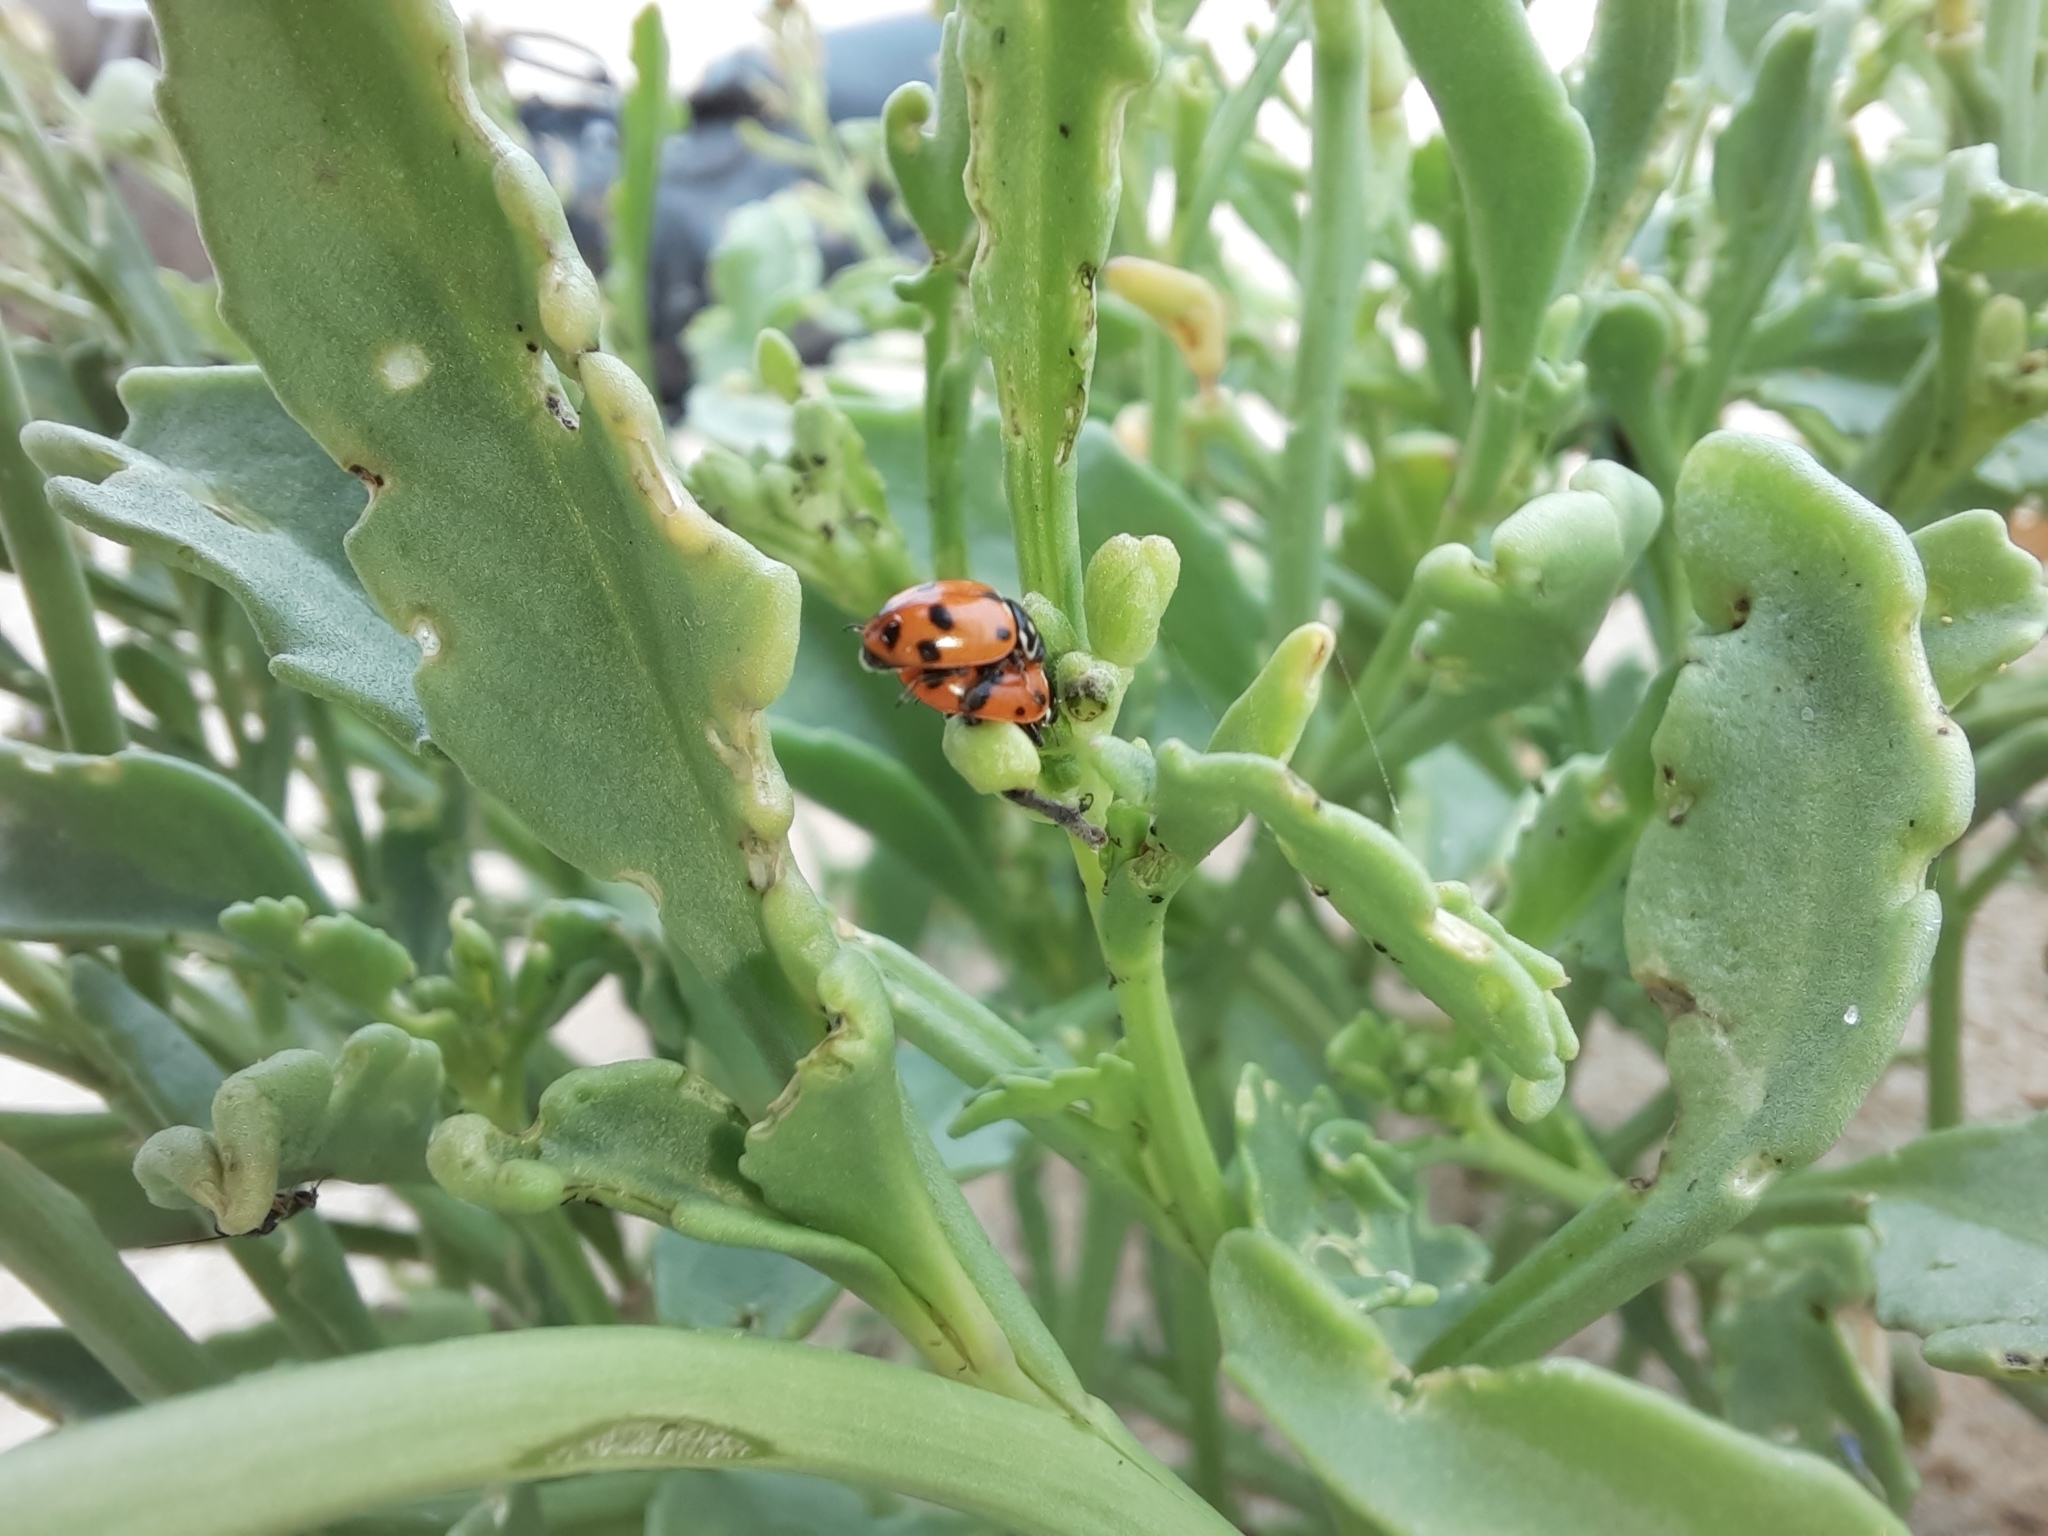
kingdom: Animalia
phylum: Arthropoda
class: Insecta
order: Coleoptera
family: Coccinellidae
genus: Hippodamia
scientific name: Hippodamia variegata
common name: Ladybird beetle
